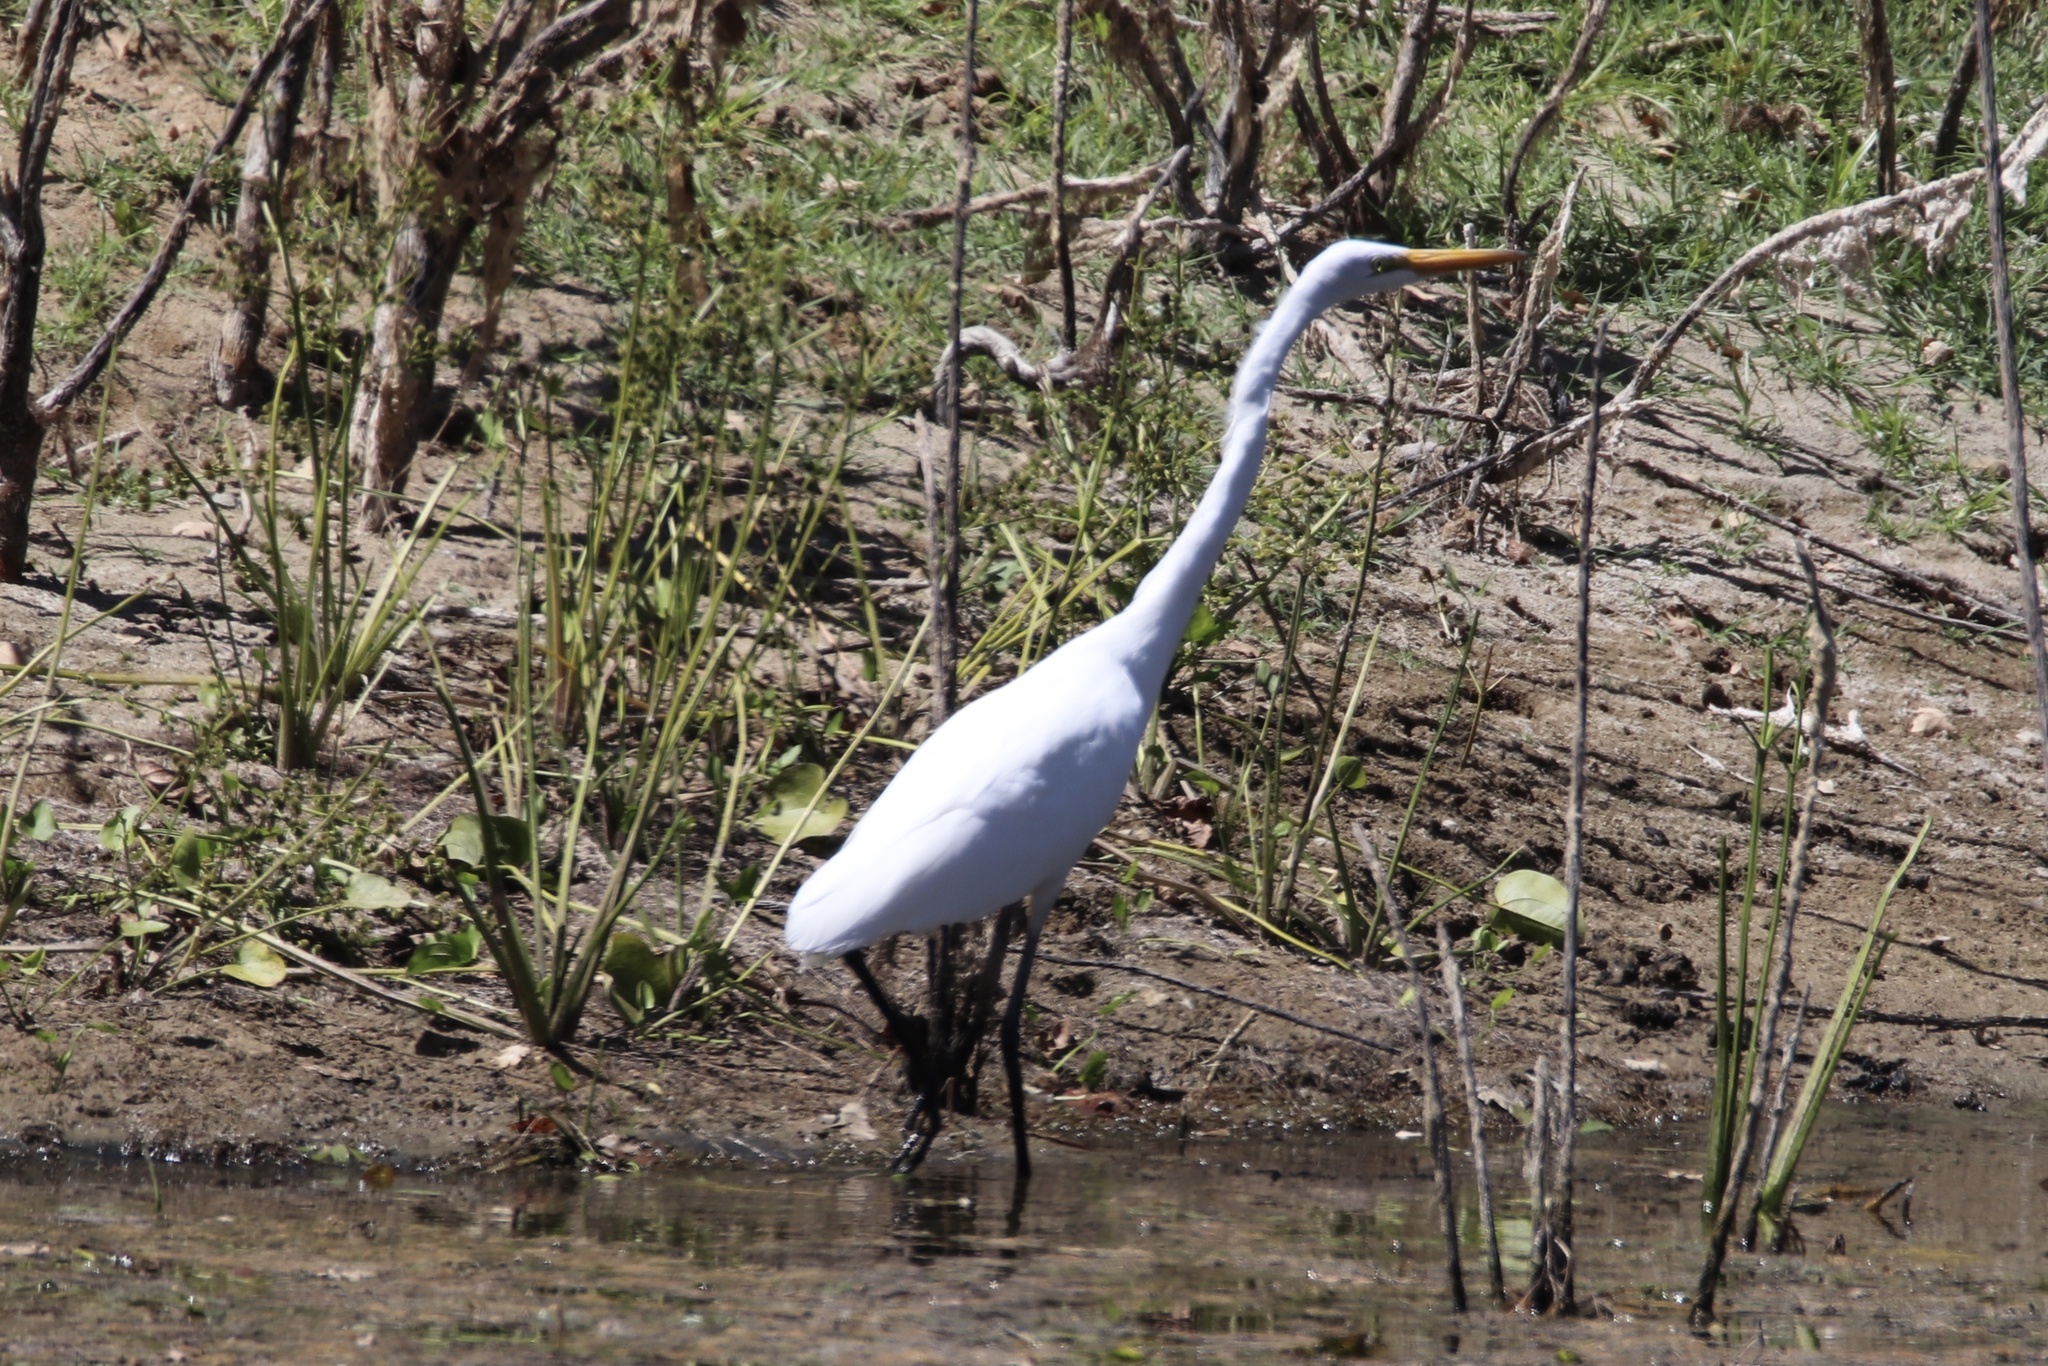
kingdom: Animalia
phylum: Chordata
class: Aves
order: Pelecaniformes
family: Ardeidae
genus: Ardea
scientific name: Ardea alba
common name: Great egret
